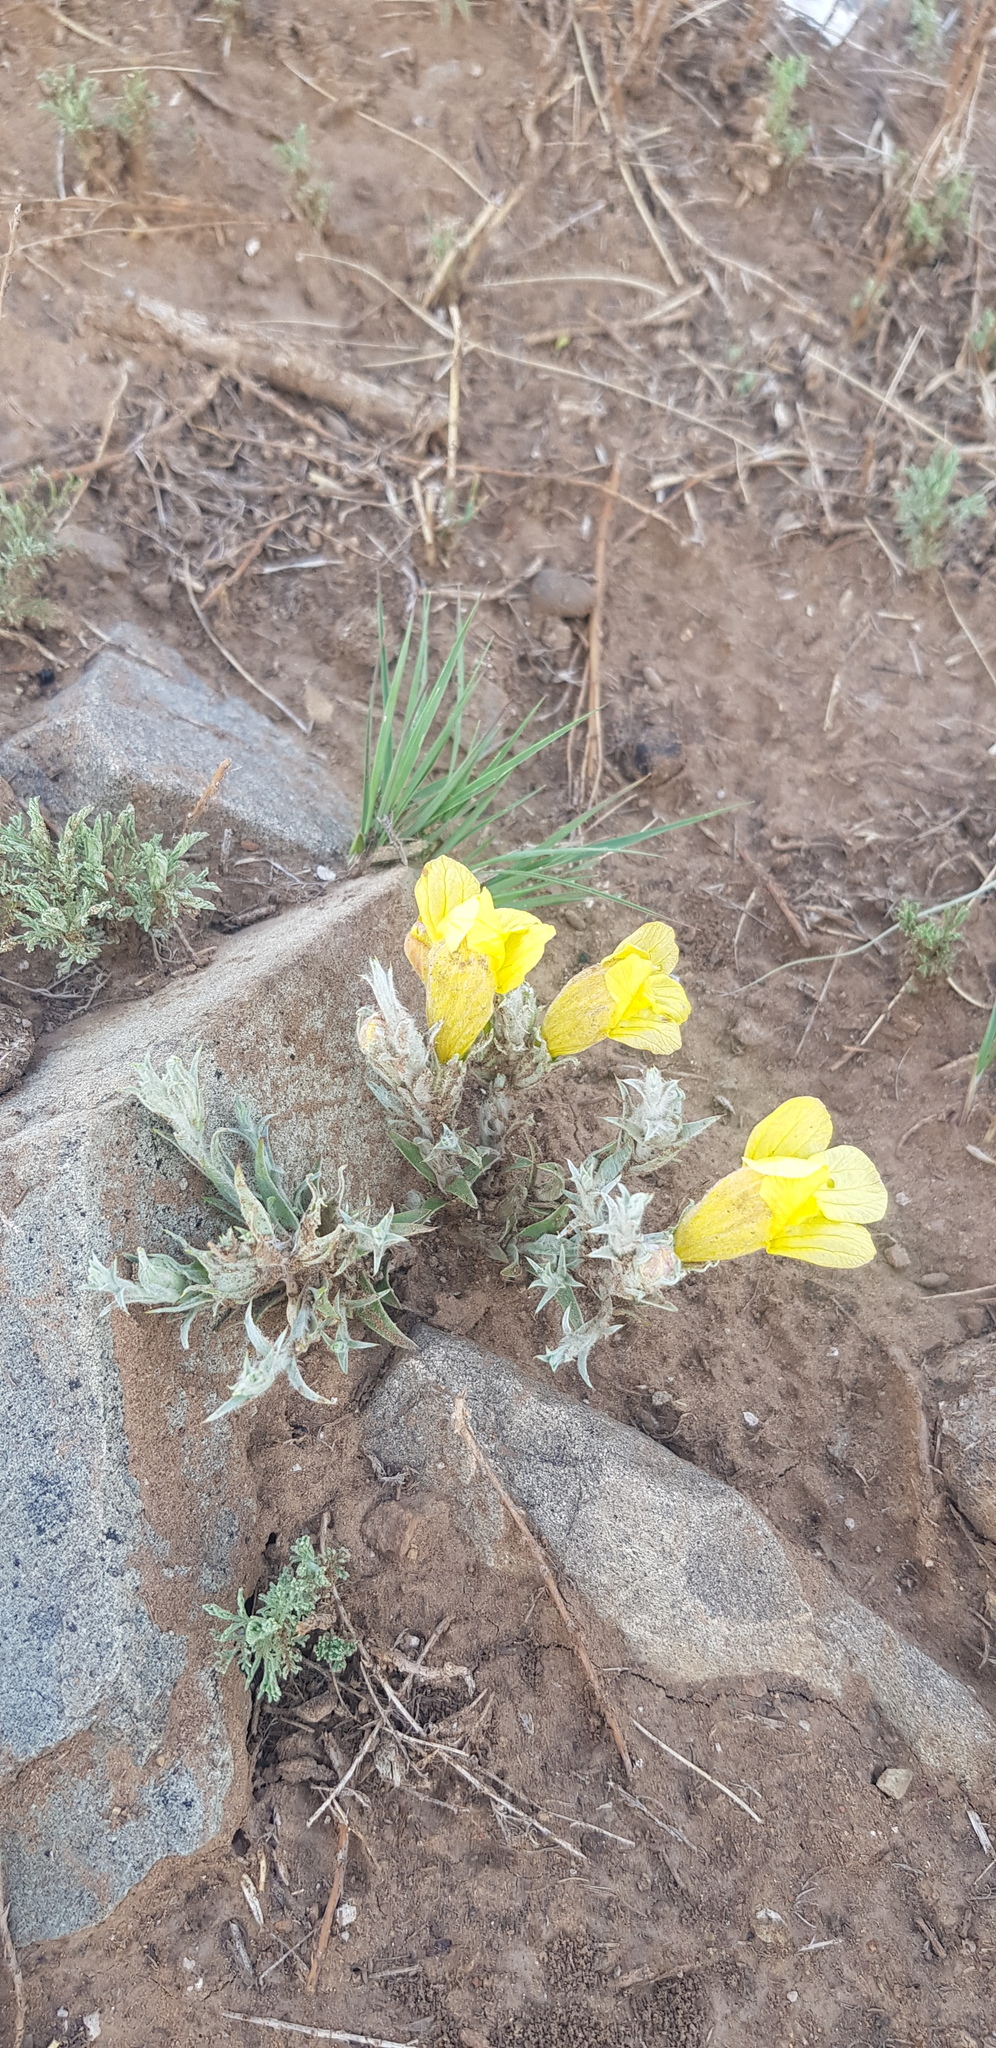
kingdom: Plantae
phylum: Tracheophyta
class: Magnoliopsida
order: Lamiales
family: Orobanchaceae
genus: Cymbaria
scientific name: Cymbaria daurica
